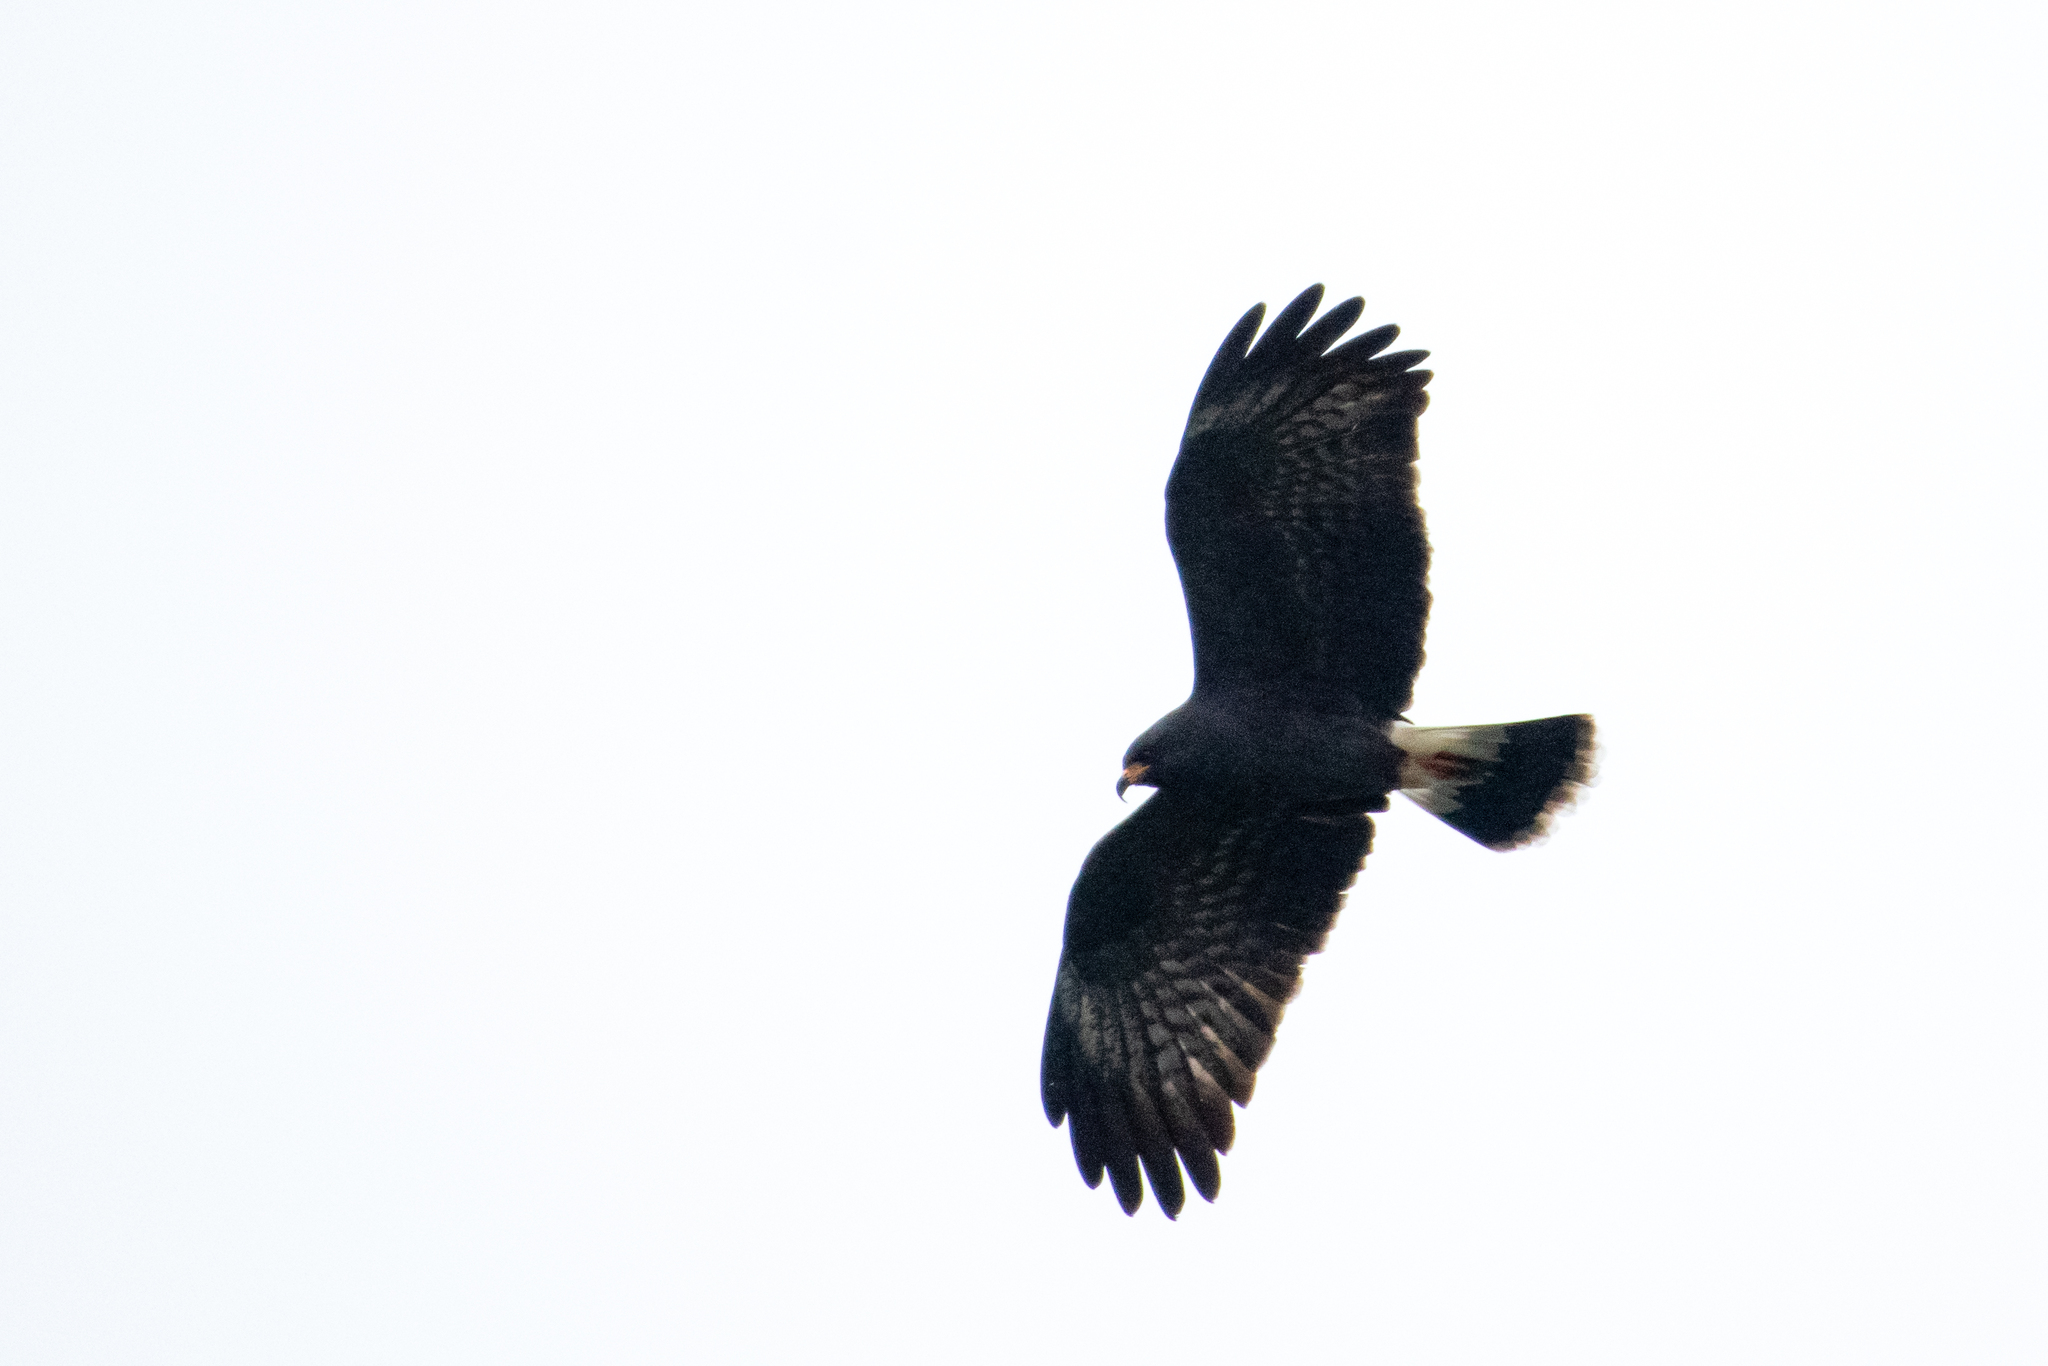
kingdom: Animalia
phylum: Chordata
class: Aves
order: Accipitriformes
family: Accipitridae
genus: Rostrhamus
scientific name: Rostrhamus sociabilis
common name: Snail kite
